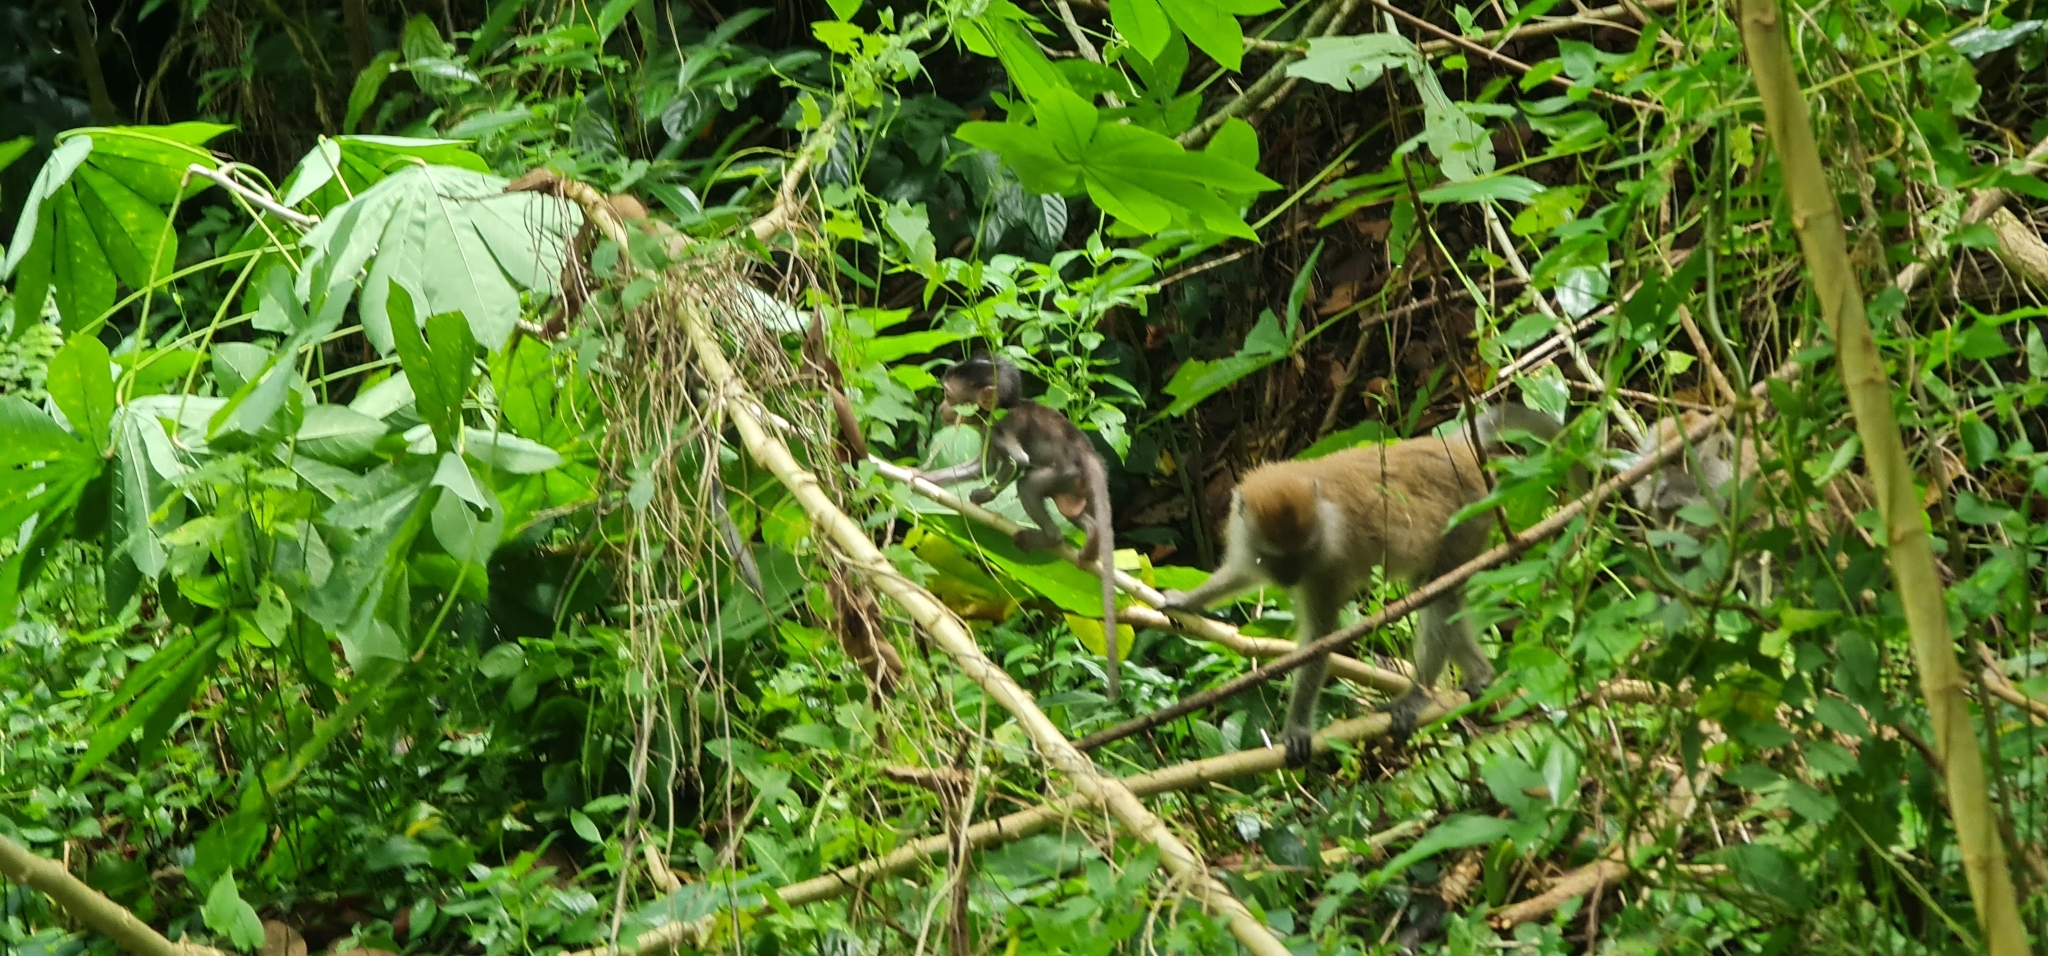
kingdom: Animalia
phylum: Chordata
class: Mammalia
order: Primates
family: Cercopithecidae
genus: Macaca
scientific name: Macaca fascicularis
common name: Crab-eating macaque
